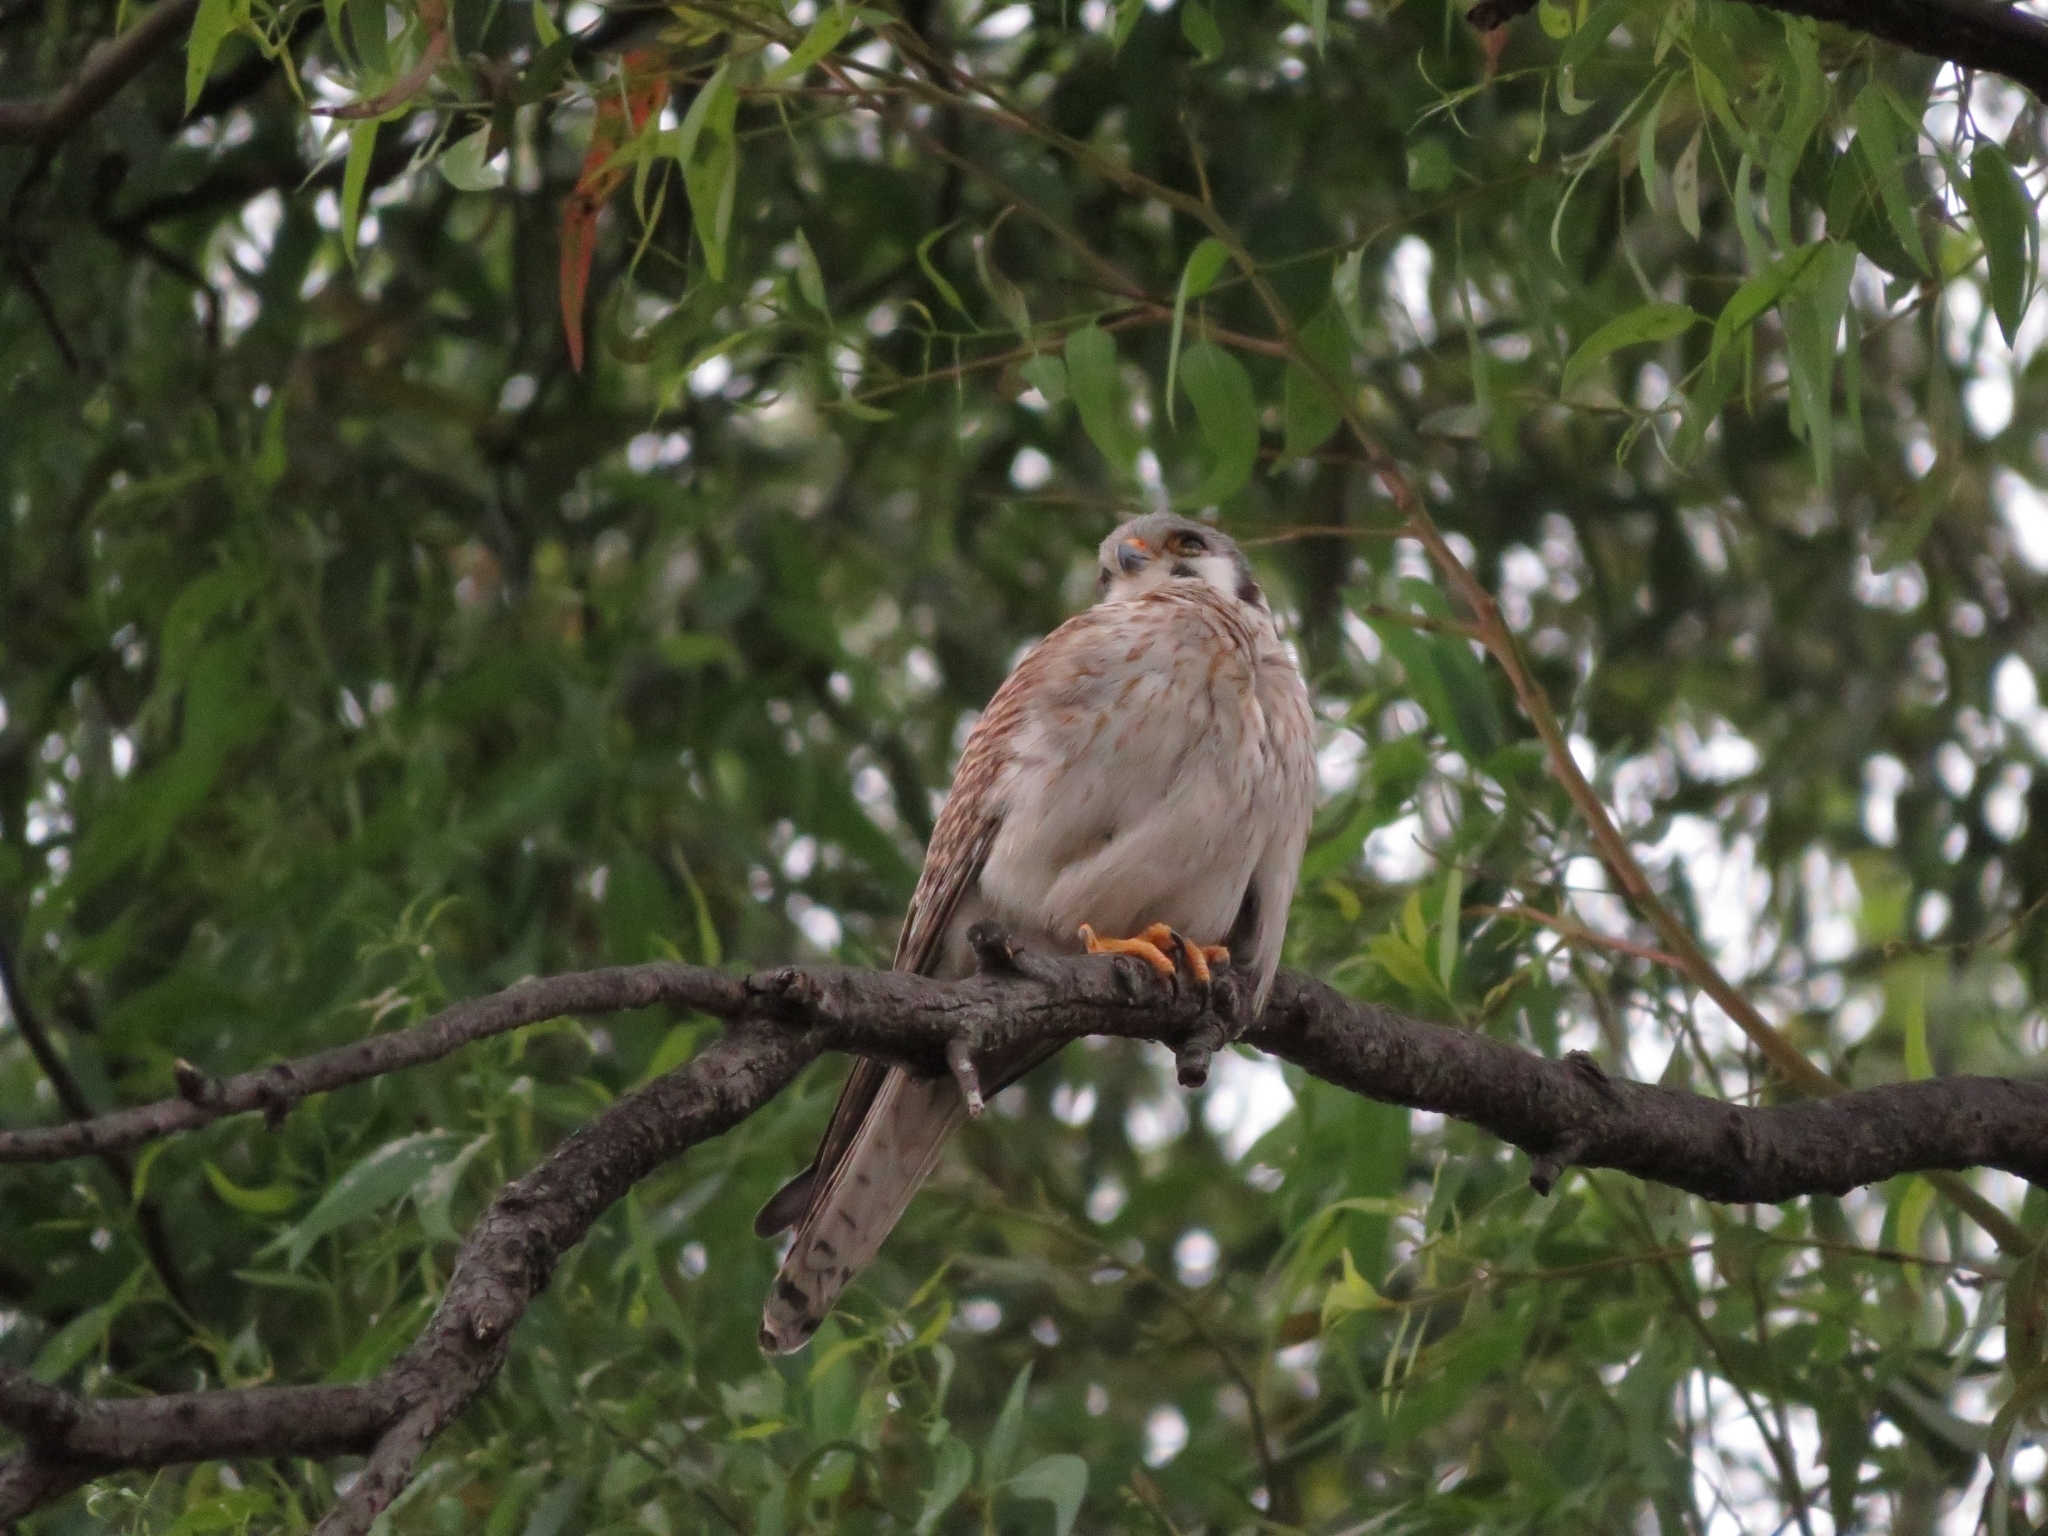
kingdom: Animalia
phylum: Chordata
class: Aves
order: Falconiformes
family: Falconidae
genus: Falco
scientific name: Falco sparverius
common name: American kestrel
